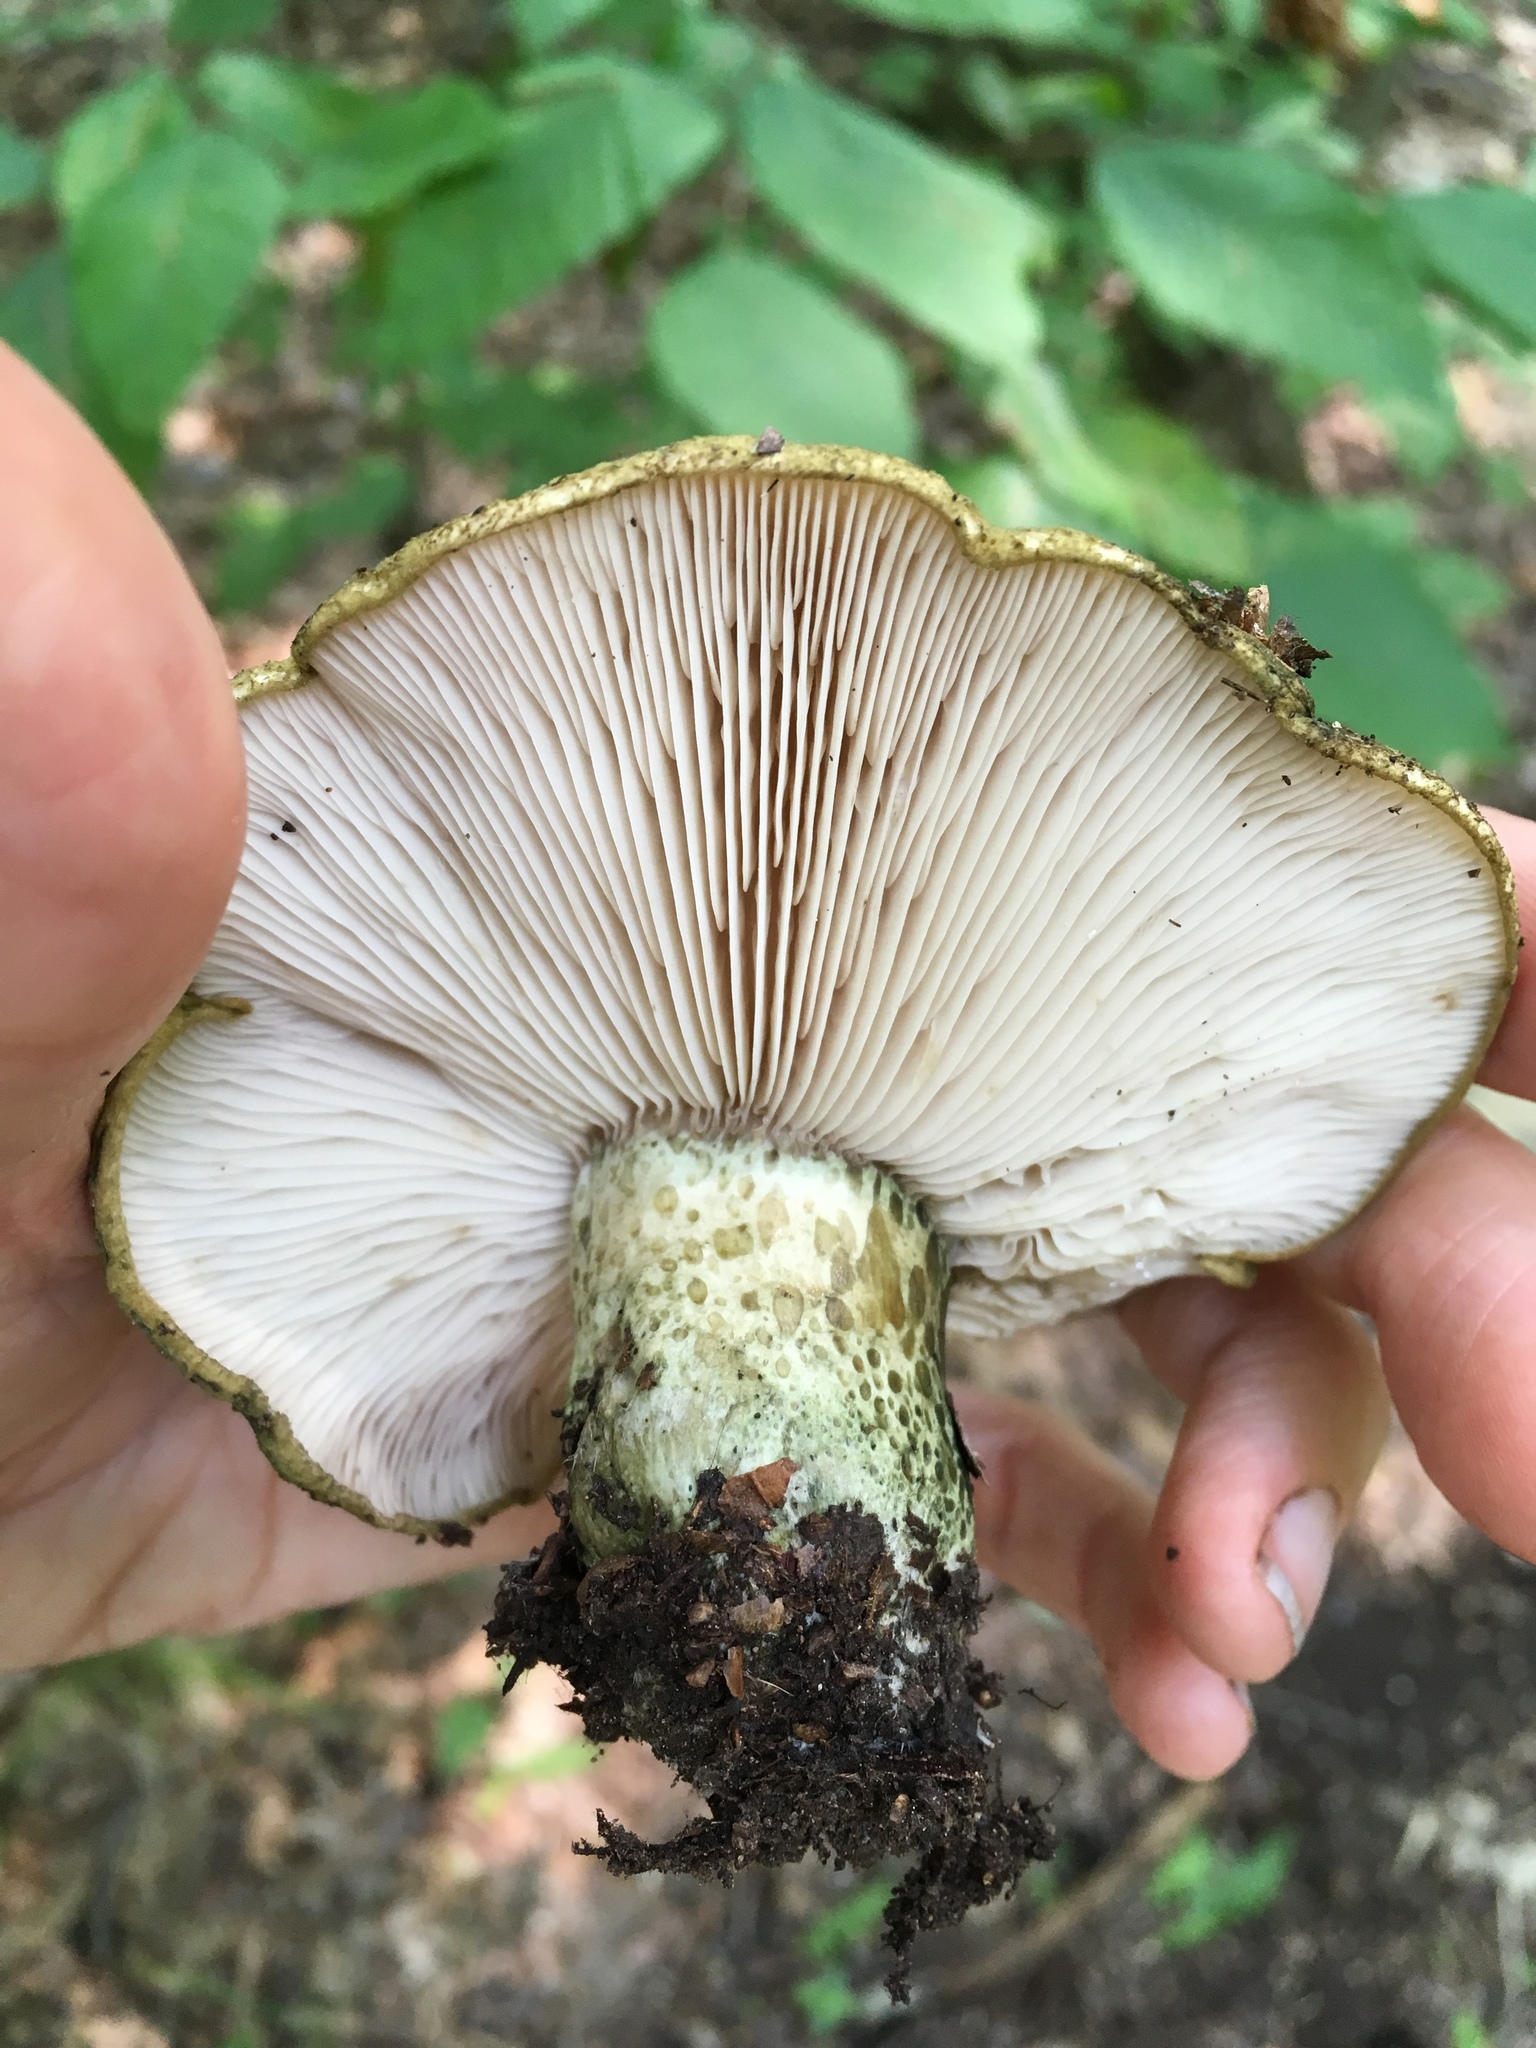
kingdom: Fungi
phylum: Basidiomycota
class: Agaricomycetes
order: Russulales
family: Russulaceae
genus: Lactarius
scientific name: Lactarius atroviridis
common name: Dark-spotted milkcap
